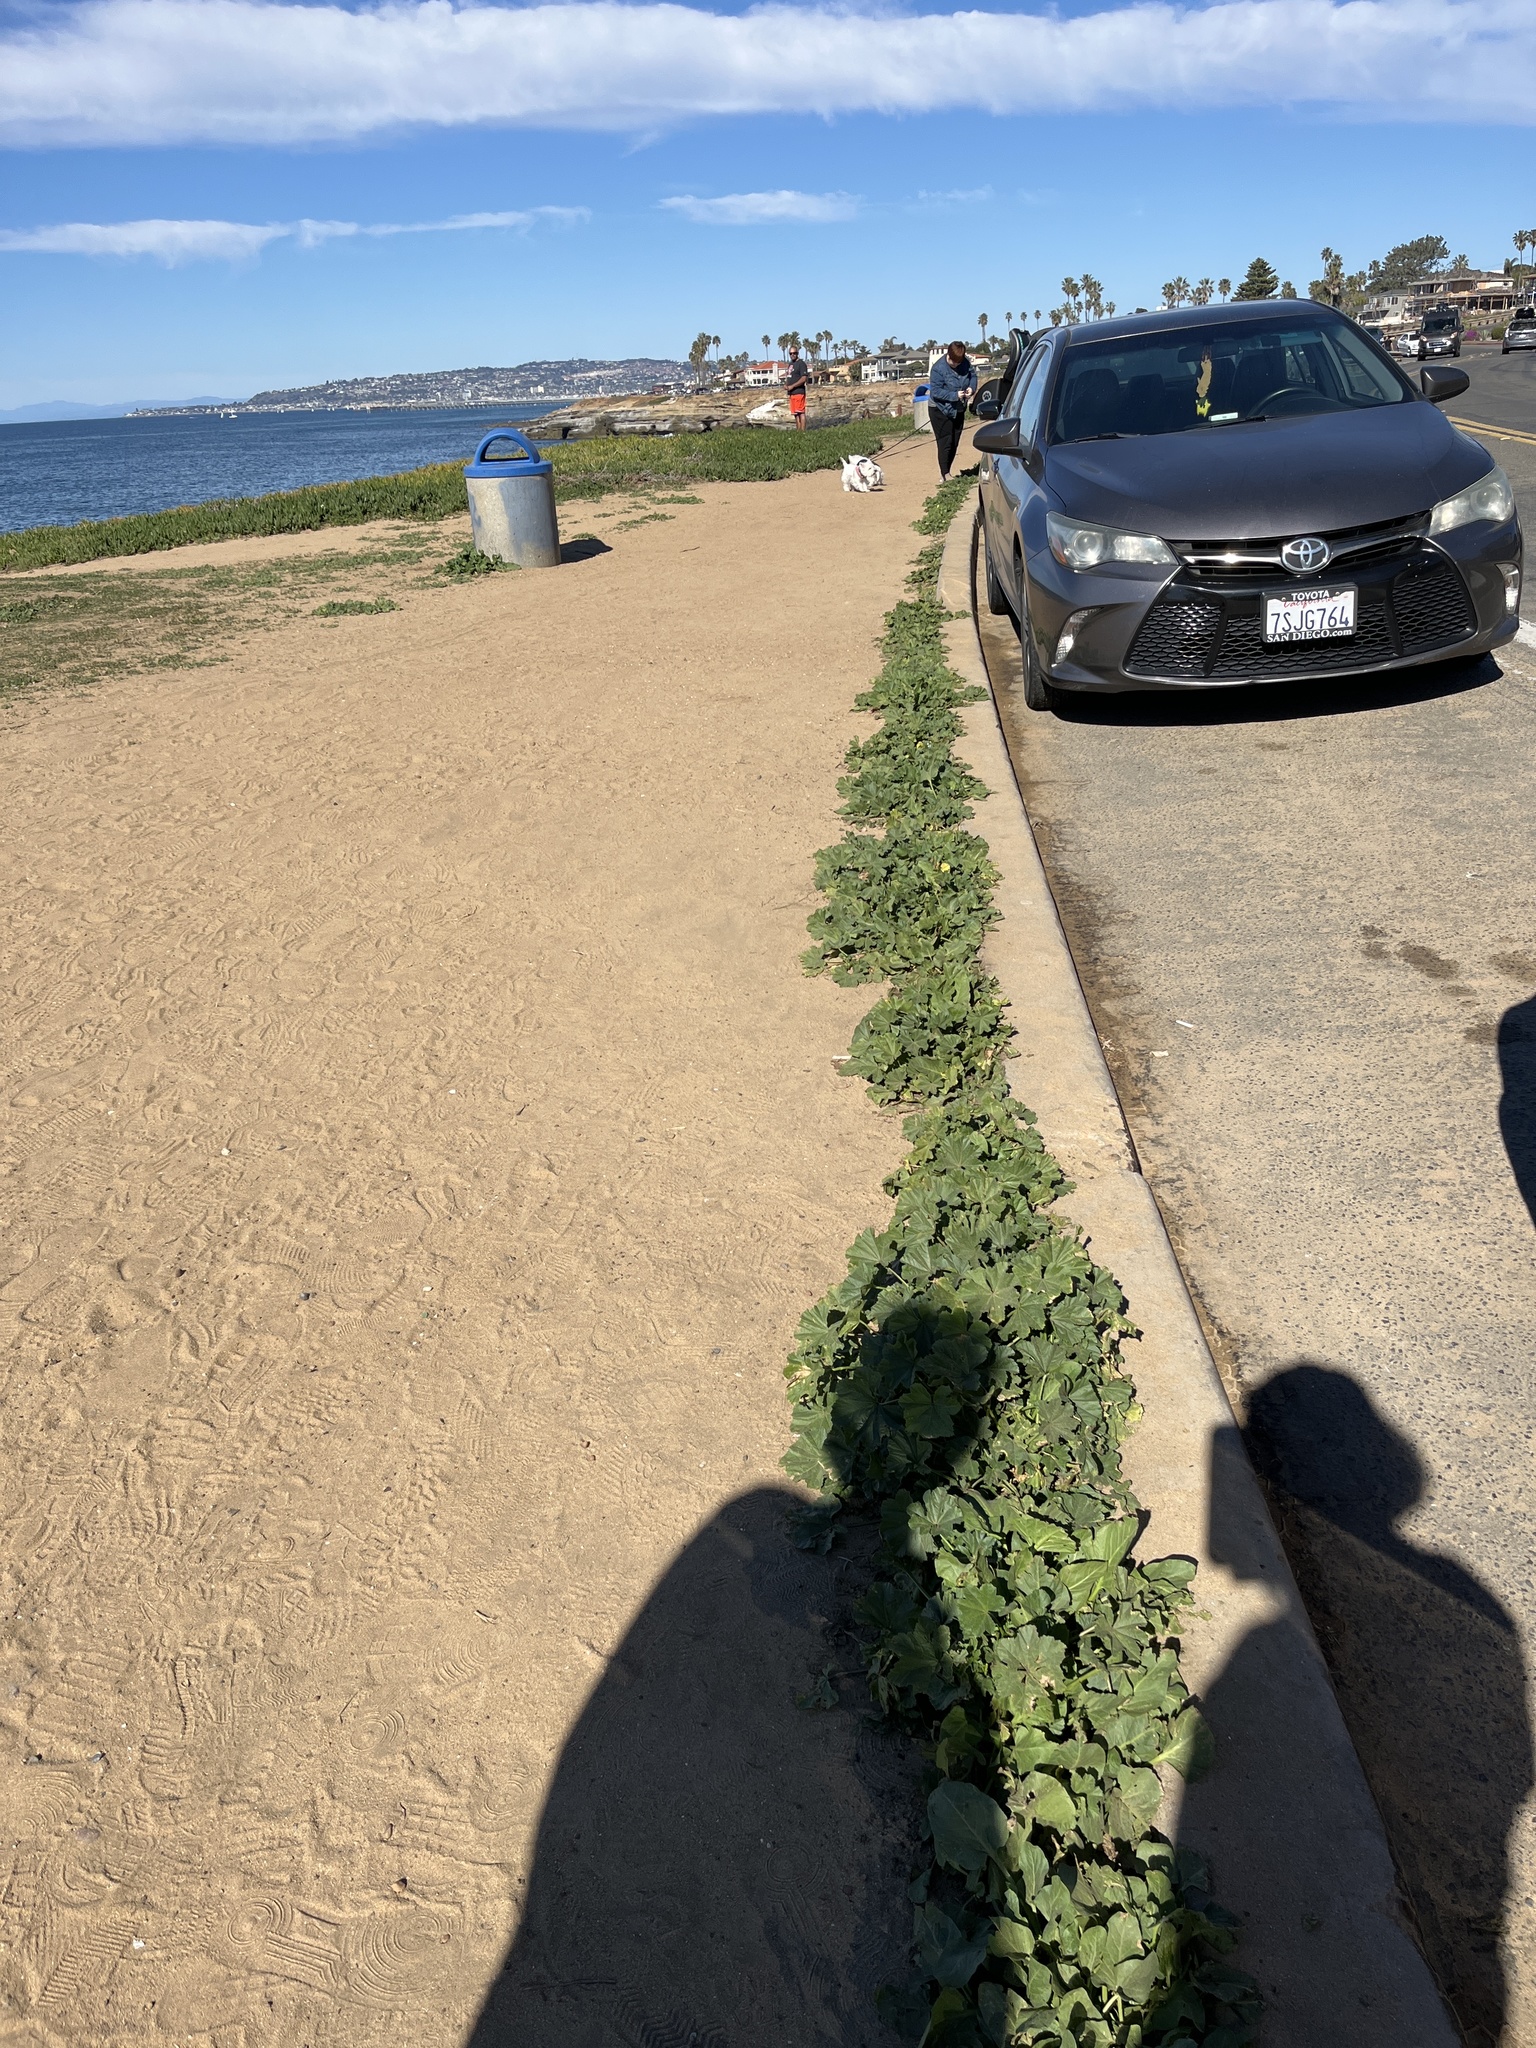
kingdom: Plantae
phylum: Tracheophyta
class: Magnoliopsida
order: Malvales
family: Malvaceae
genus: Malva
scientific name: Malva
